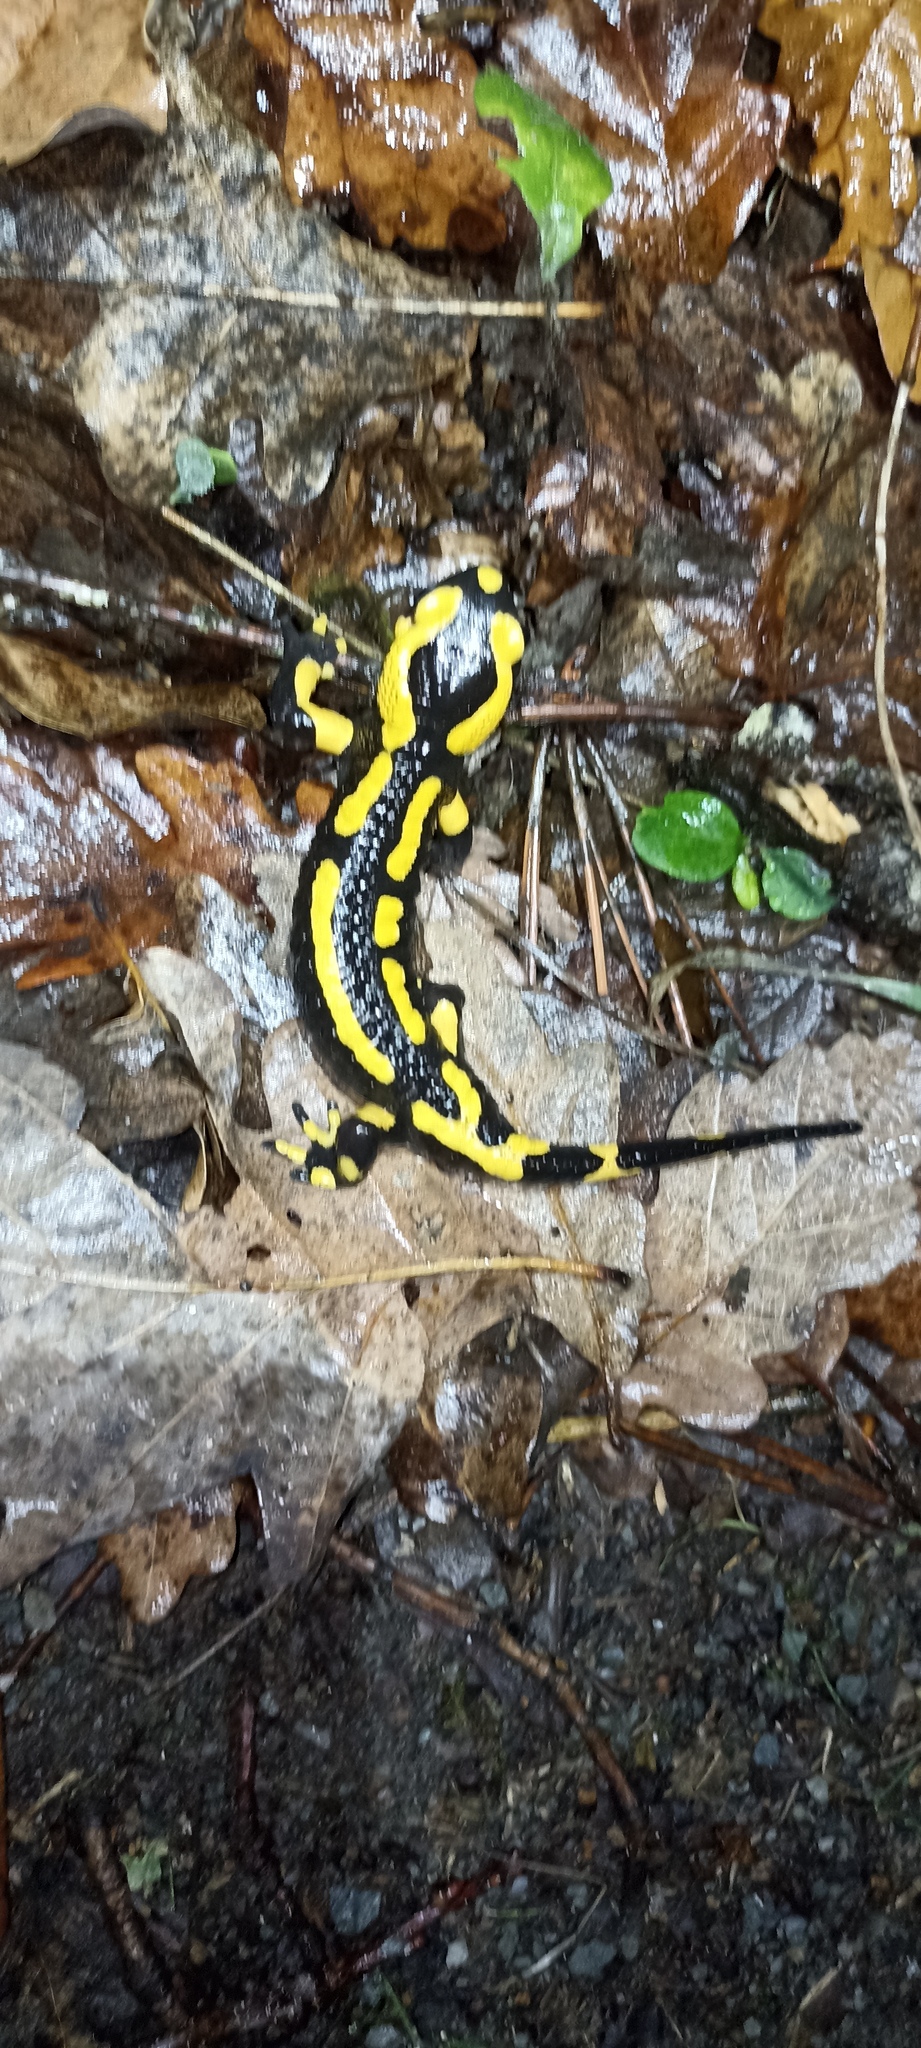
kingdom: Animalia
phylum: Chordata
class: Amphibia
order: Caudata
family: Salamandridae
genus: Salamandra
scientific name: Salamandra salamandra
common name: Fire salamander
